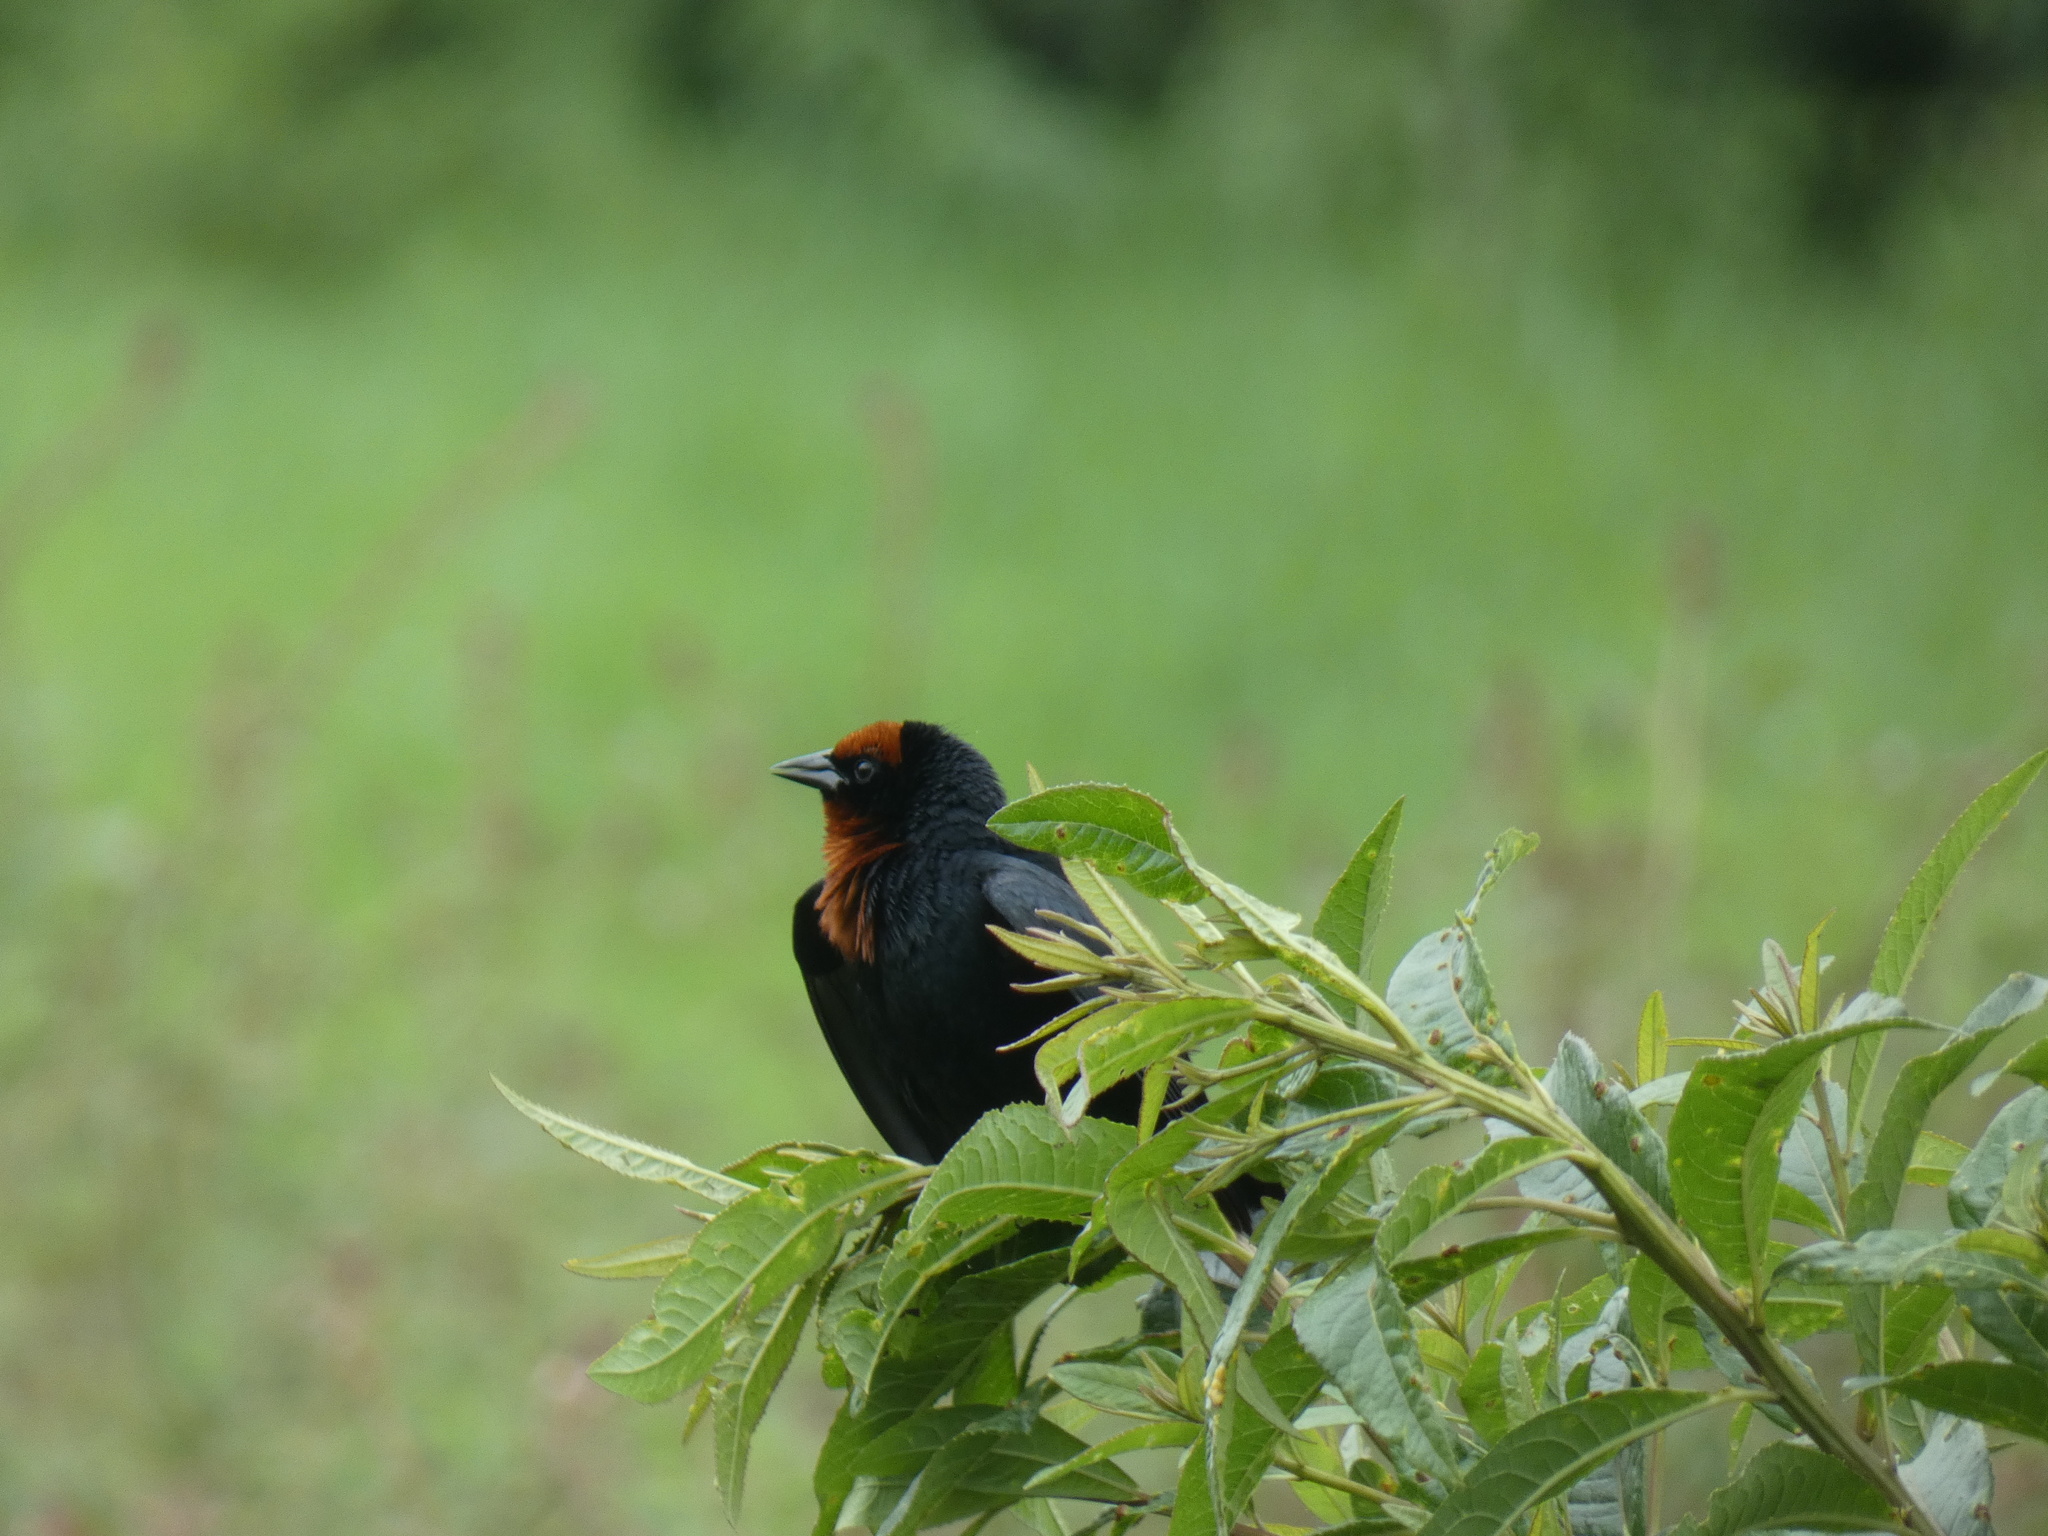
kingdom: Animalia
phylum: Chordata
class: Aves
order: Passeriformes
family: Icteridae
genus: Chrysomus
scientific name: Chrysomus ruficapillus
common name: Chestnut-capped blackbird
